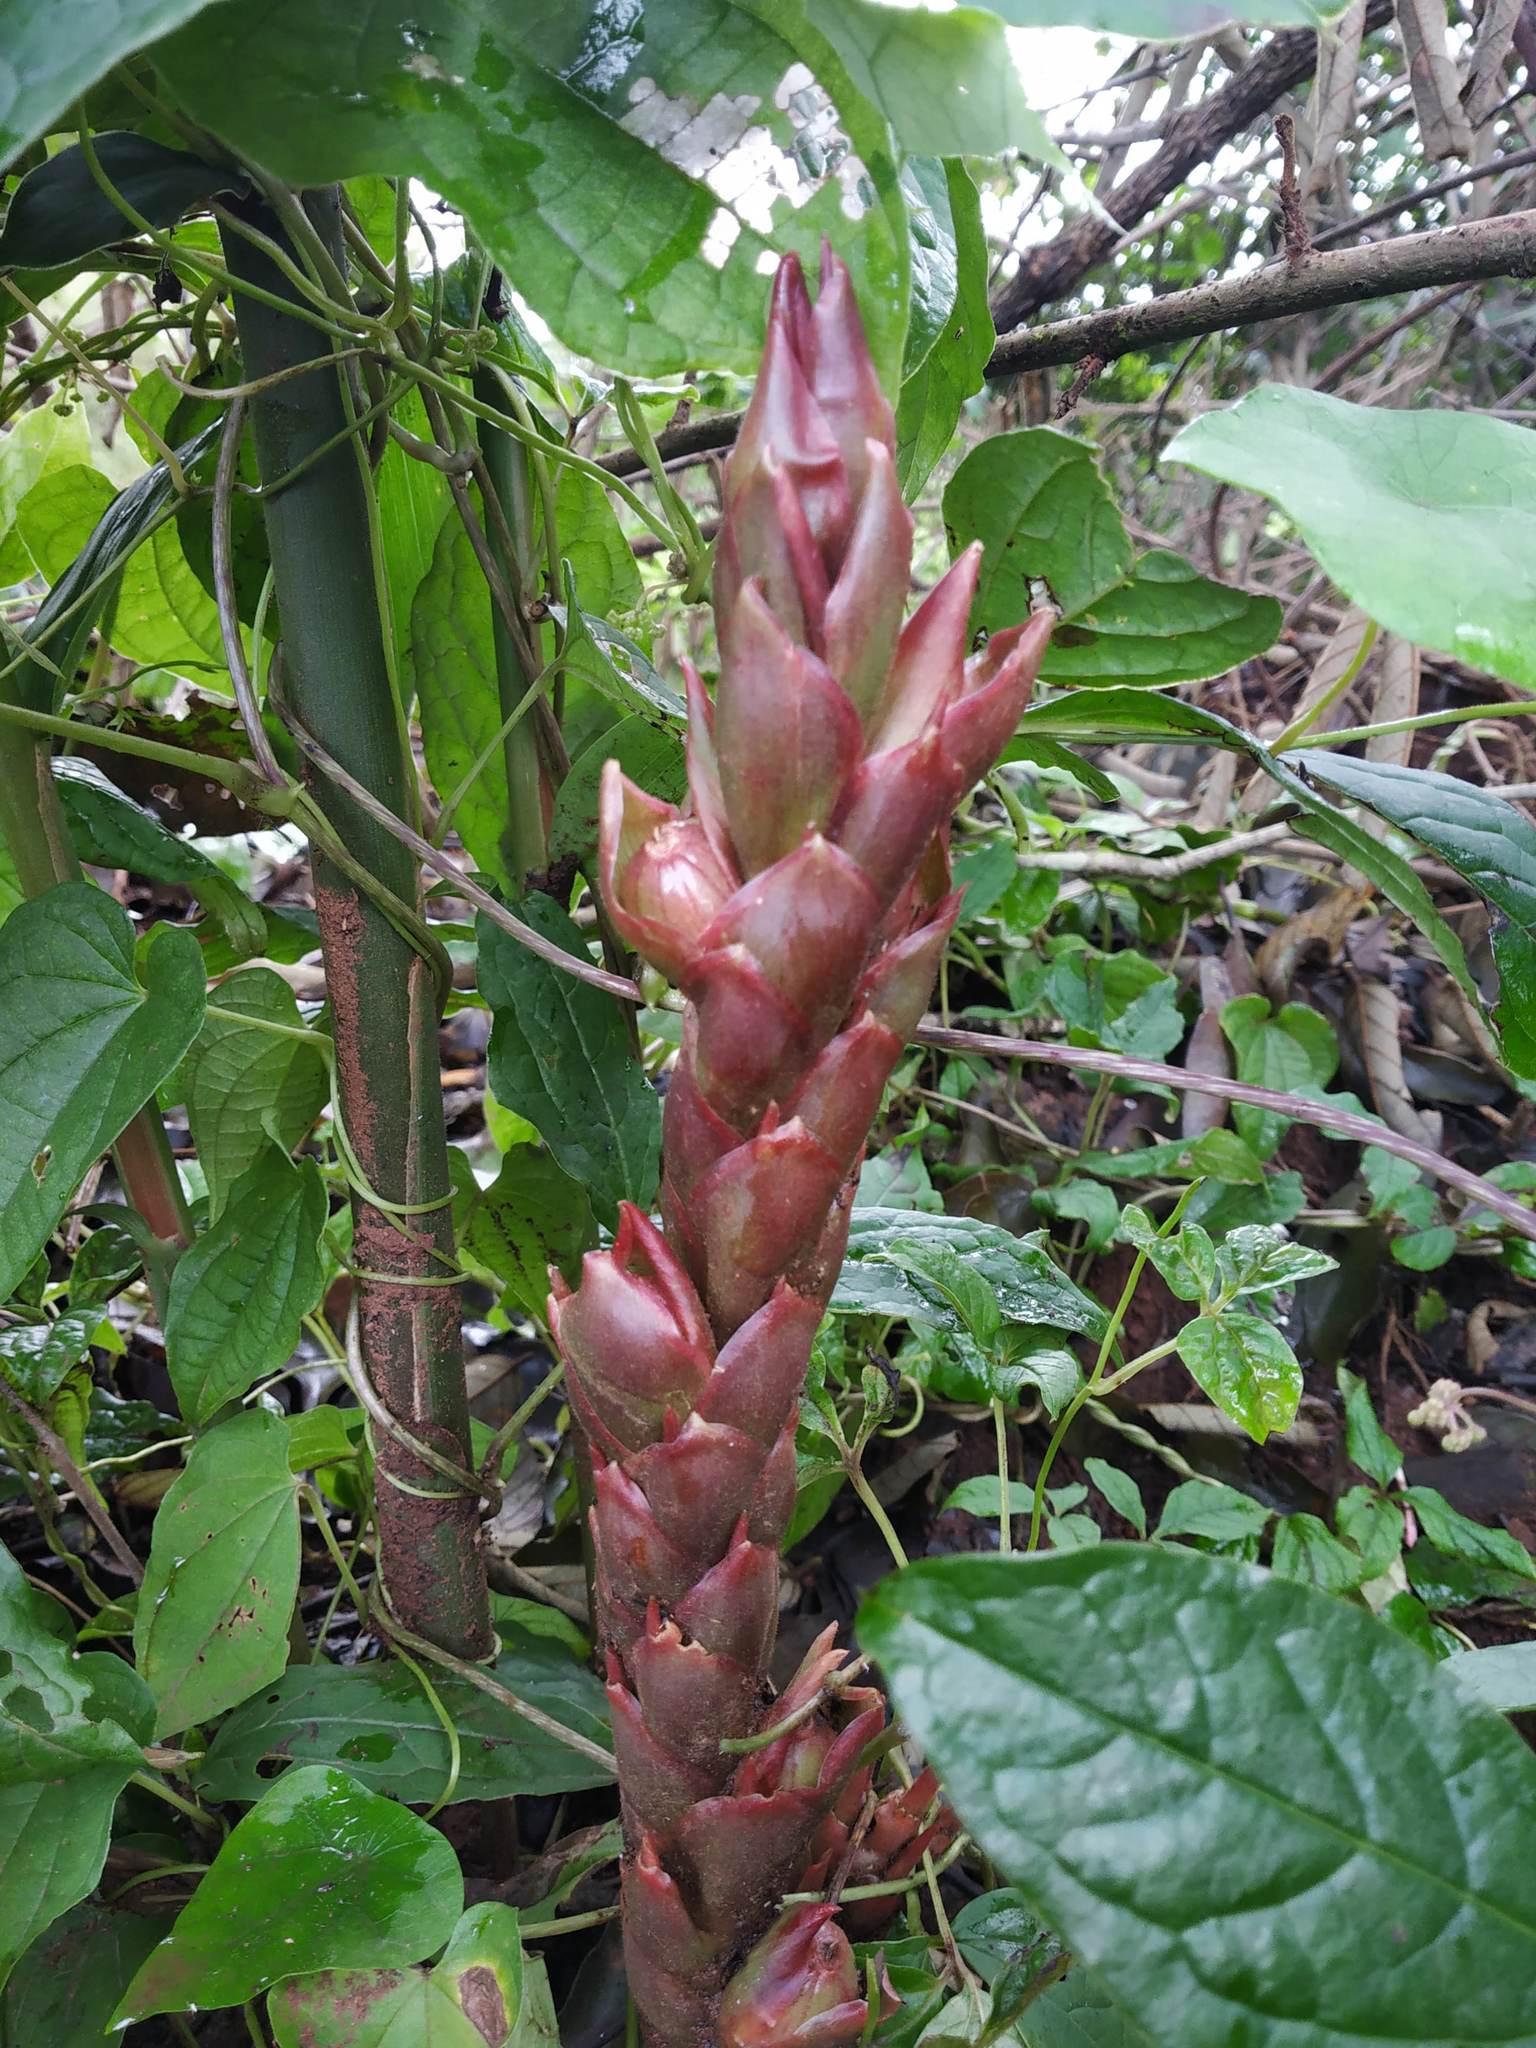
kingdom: Plantae
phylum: Tracheophyta
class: Liliopsida
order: Zingiberales
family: Zingiberaceae
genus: Zingiber
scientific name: Zingiber anamalayanum
